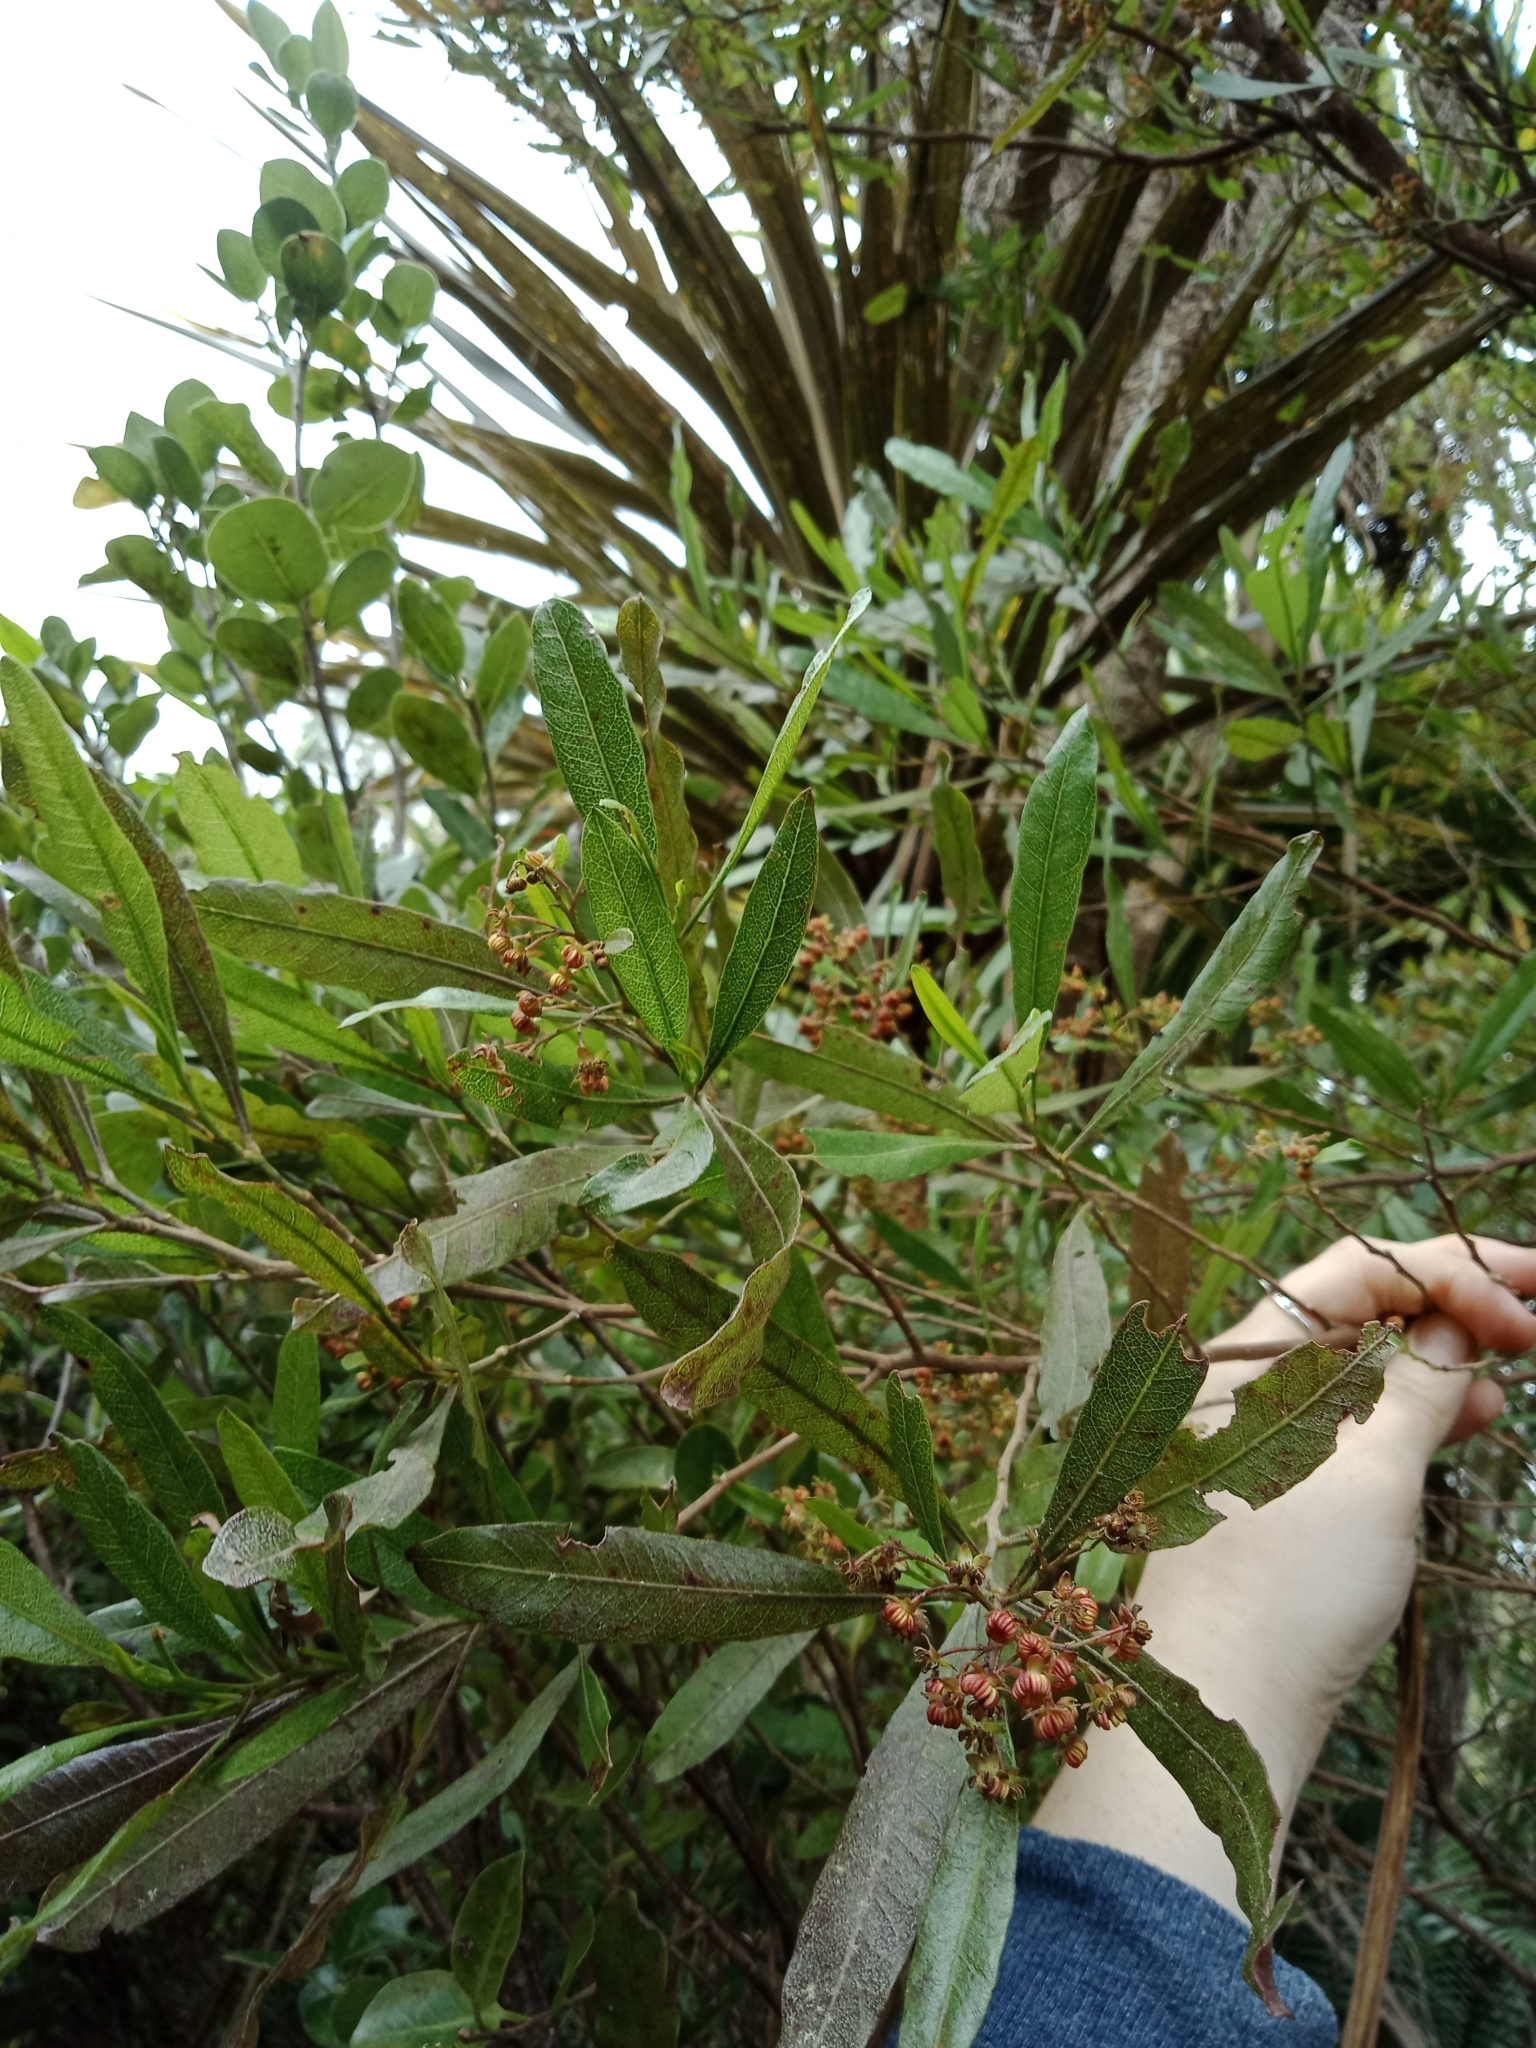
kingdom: Plantae
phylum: Tracheophyta
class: Magnoliopsida
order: Sapindales
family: Sapindaceae
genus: Dodonaea
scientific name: Dodonaea viscosa
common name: Hopbush
